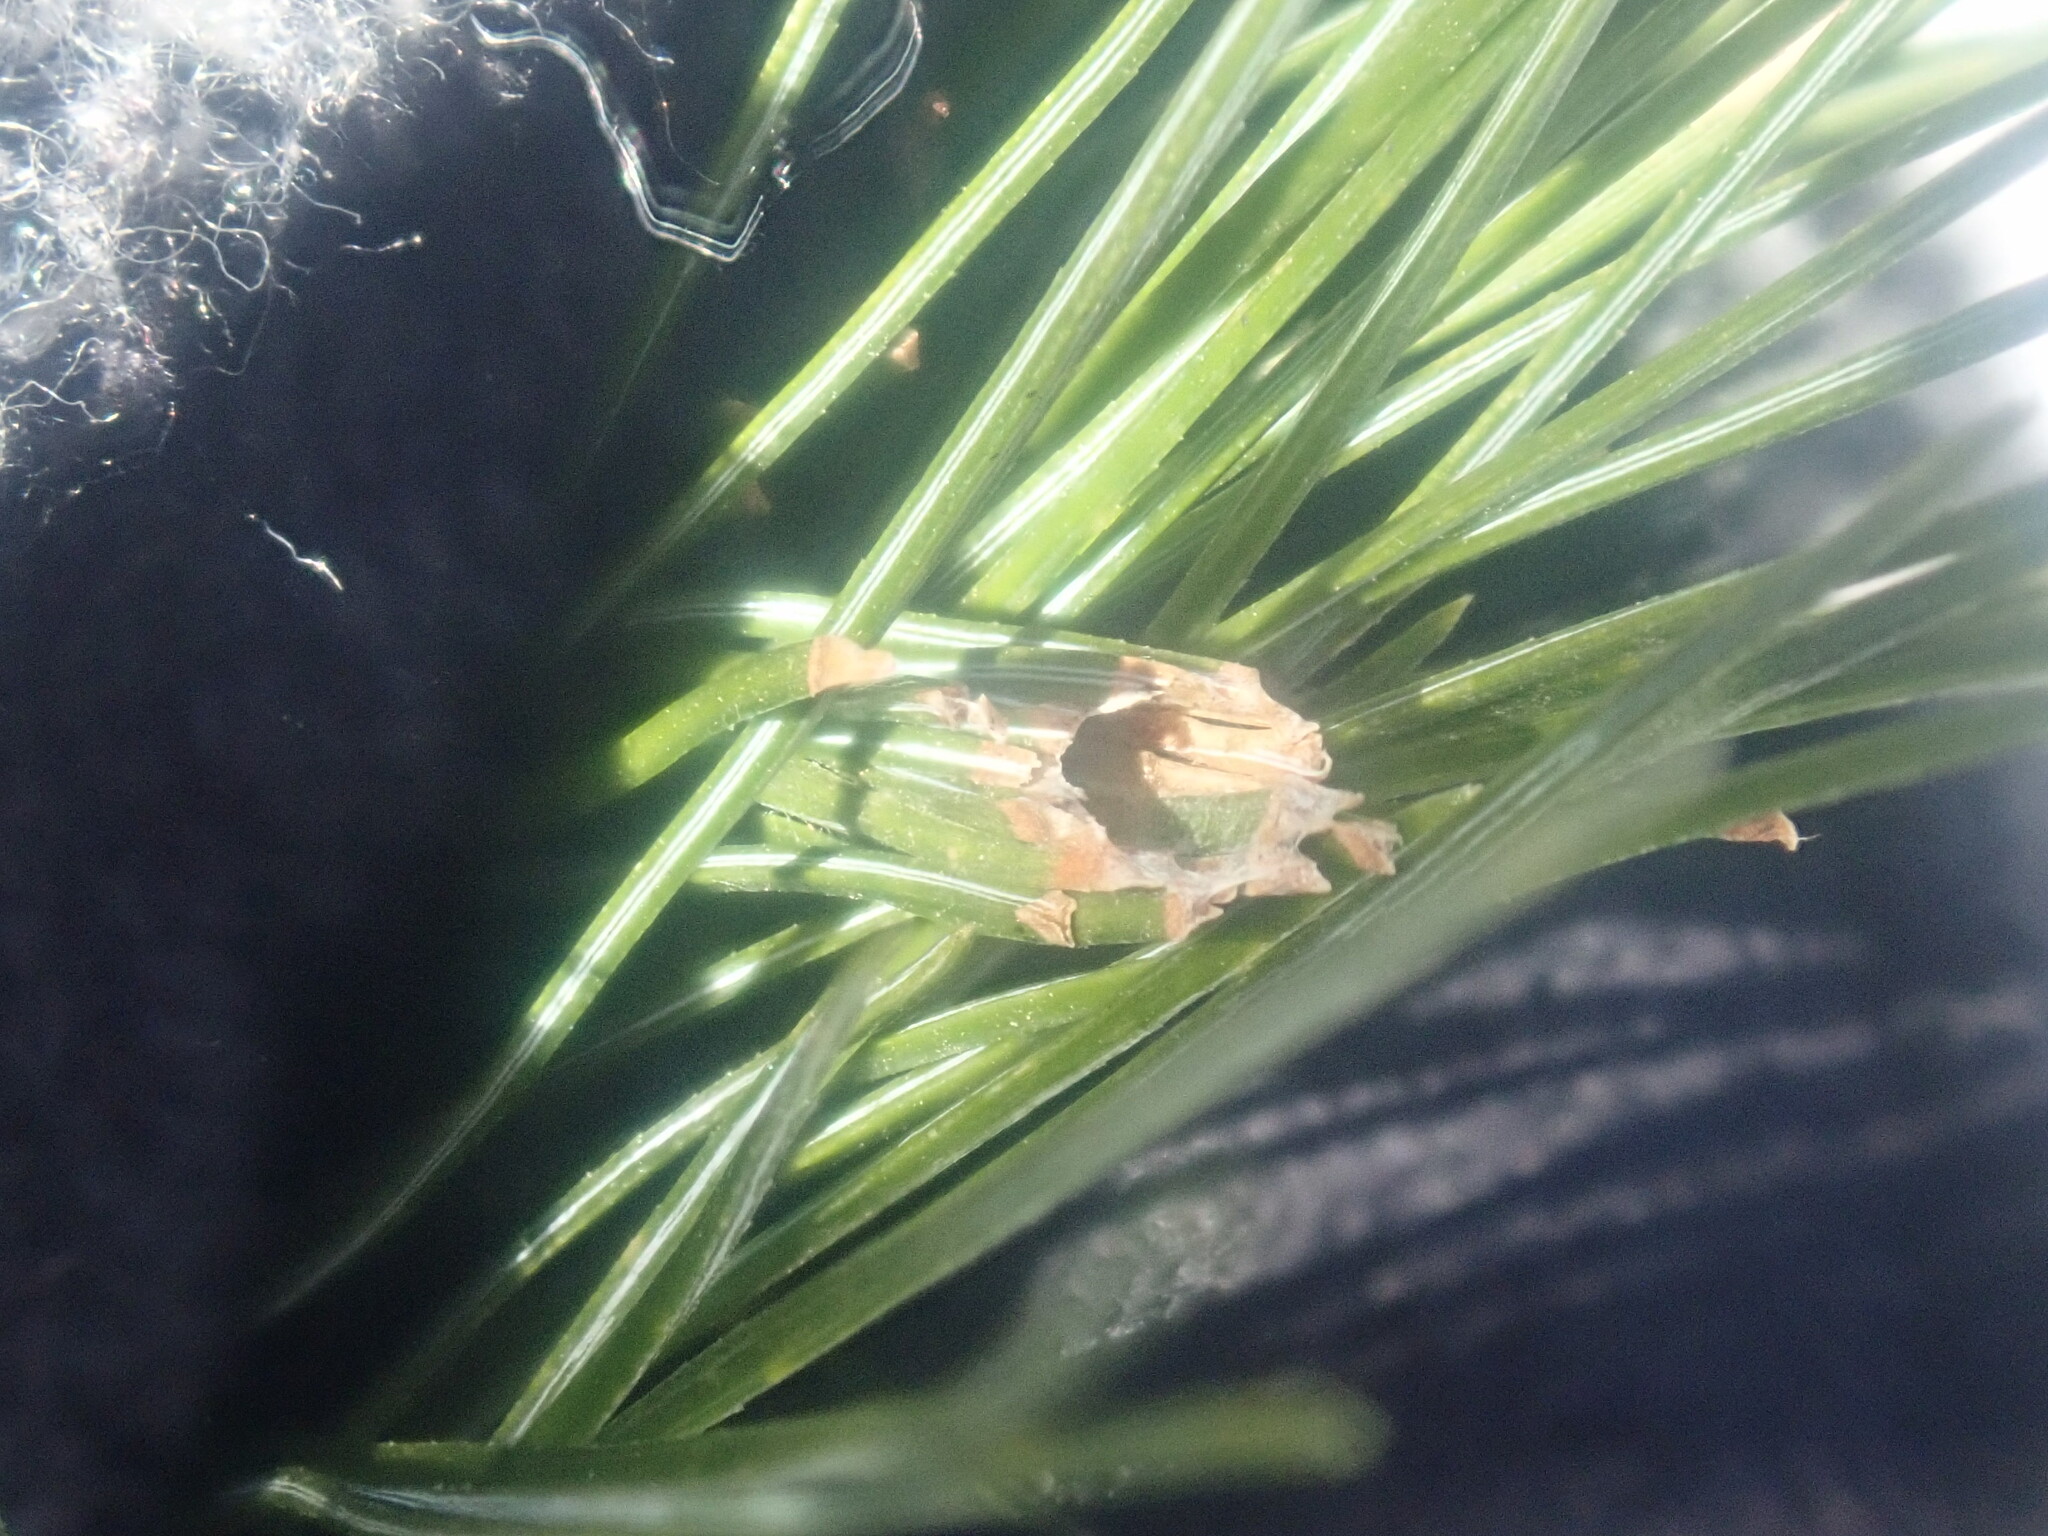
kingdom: Animalia
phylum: Arthropoda
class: Insecta
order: Lepidoptera
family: Tortricidae
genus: Argyrotaenia
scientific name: Argyrotaenia pinatubana
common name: Pine tube moth
